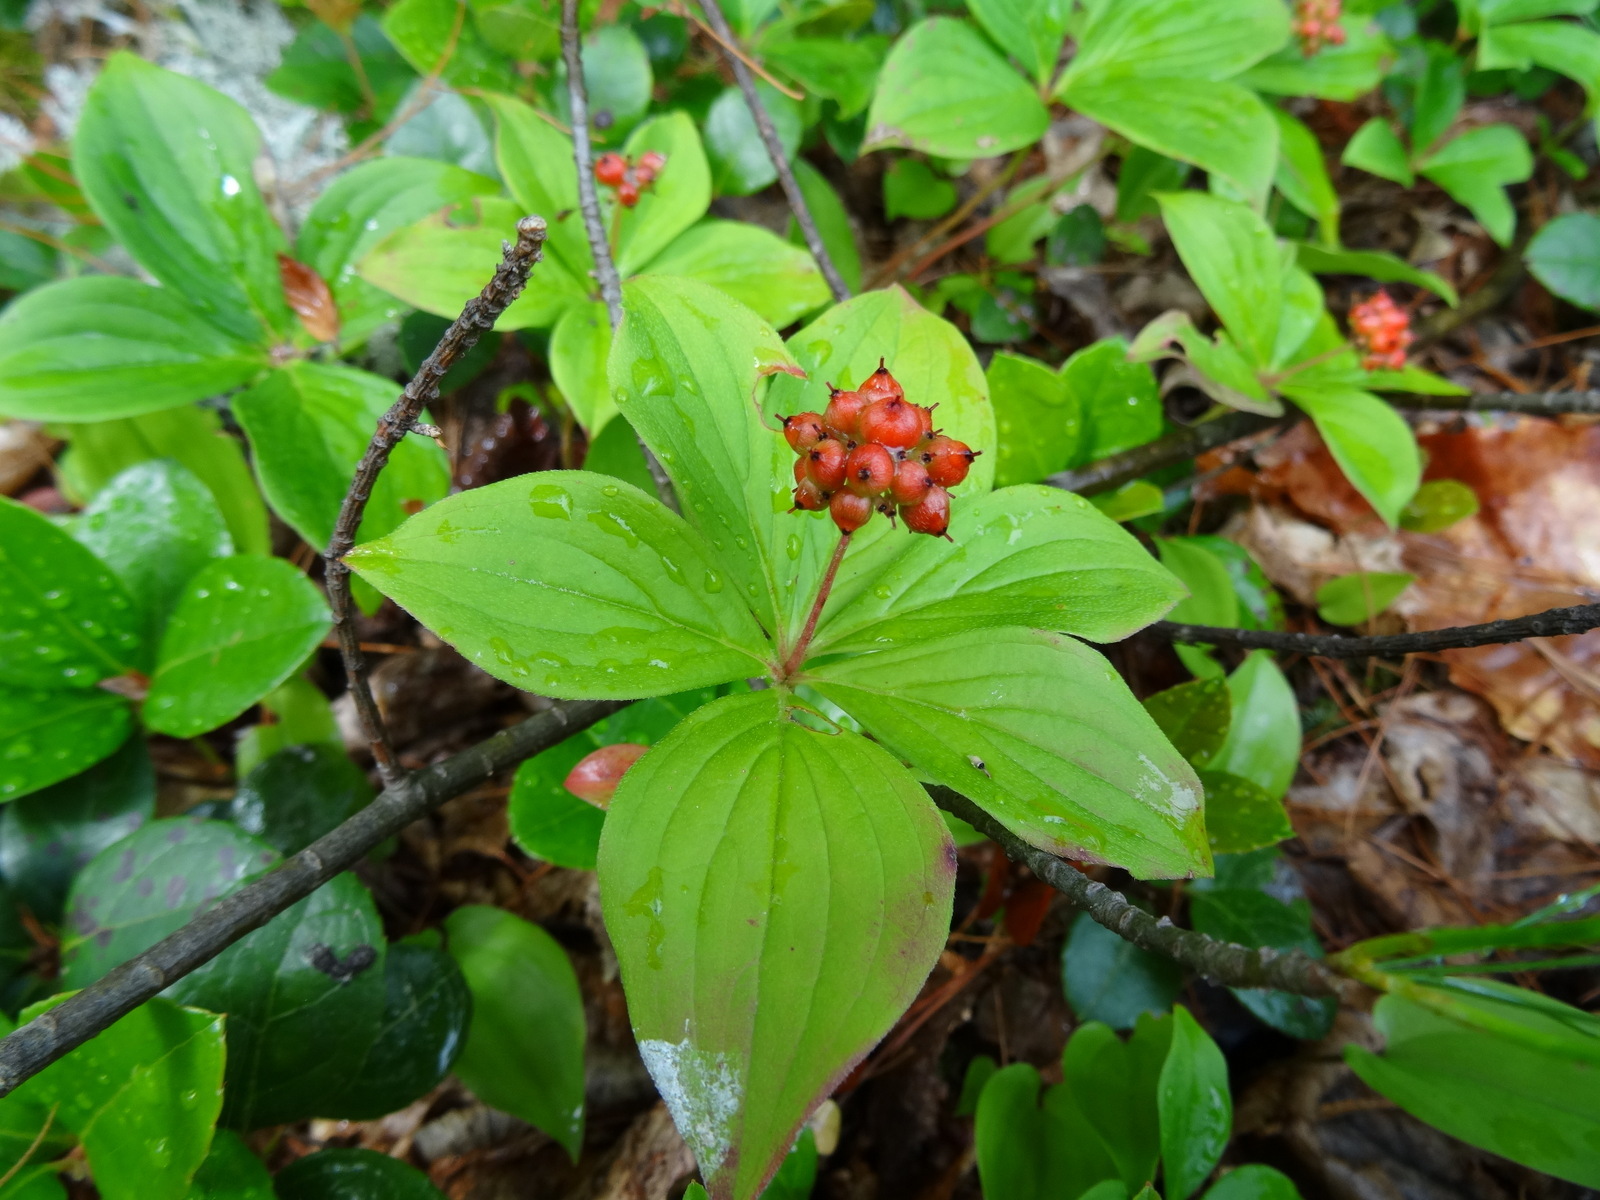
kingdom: Plantae
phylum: Tracheophyta
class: Magnoliopsida
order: Cornales
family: Cornaceae
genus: Cornus
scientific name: Cornus canadensis
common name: Creeping dogwood
